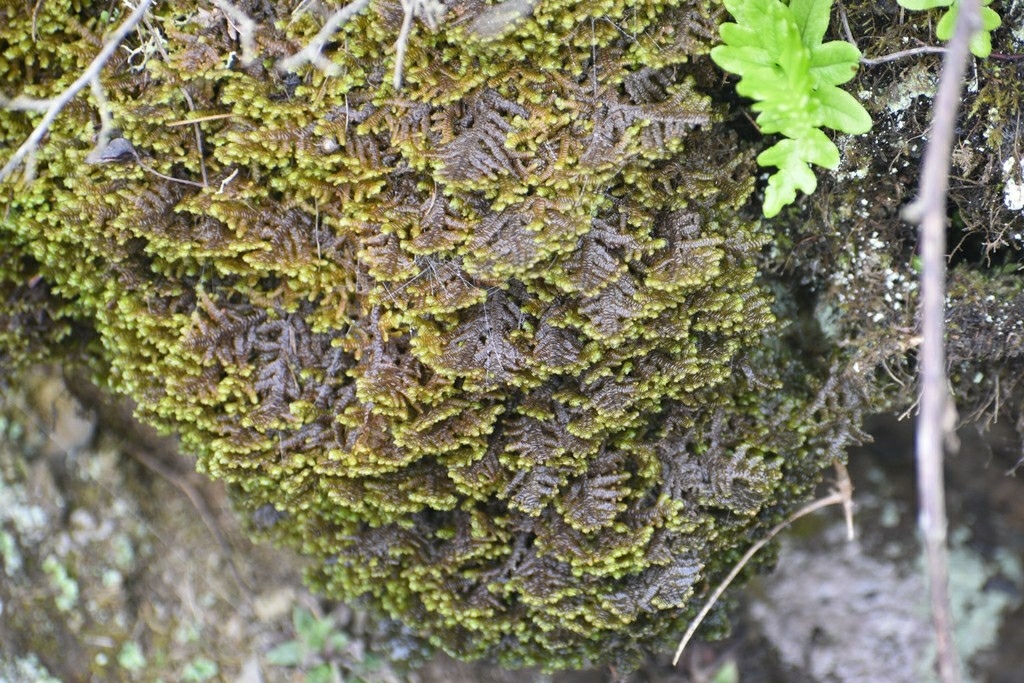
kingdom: Plantae
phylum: Marchantiophyta
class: Jungermanniopsida
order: Porellales
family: Porellaceae
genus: Porella
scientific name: Porella navicularis
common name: Tree ruffle liverwort
